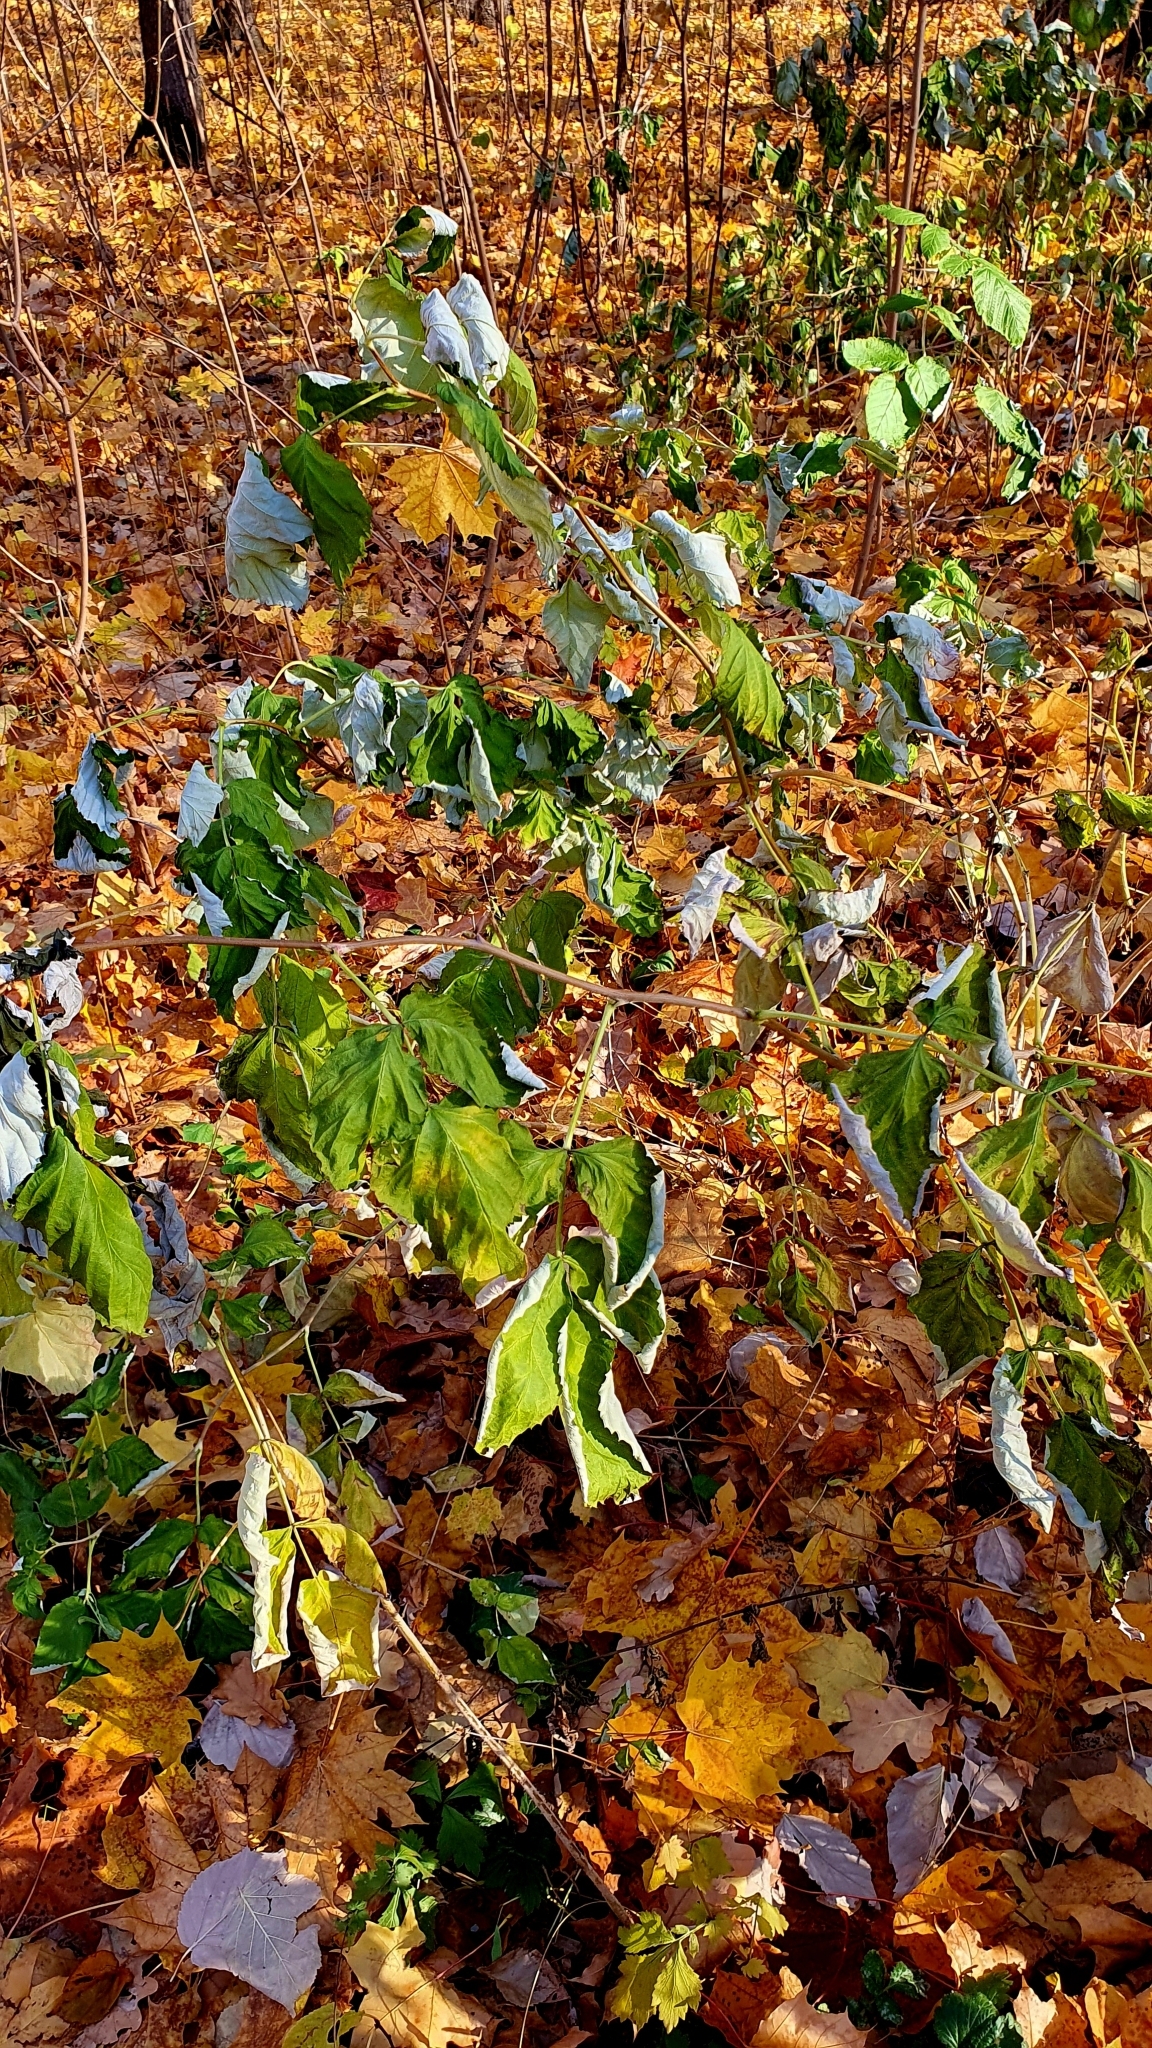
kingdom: Plantae
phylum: Tracheophyta
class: Magnoliopsida
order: Rosales
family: Rosaceae
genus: Rubus
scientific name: Rubus idaeus
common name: Raspberry
